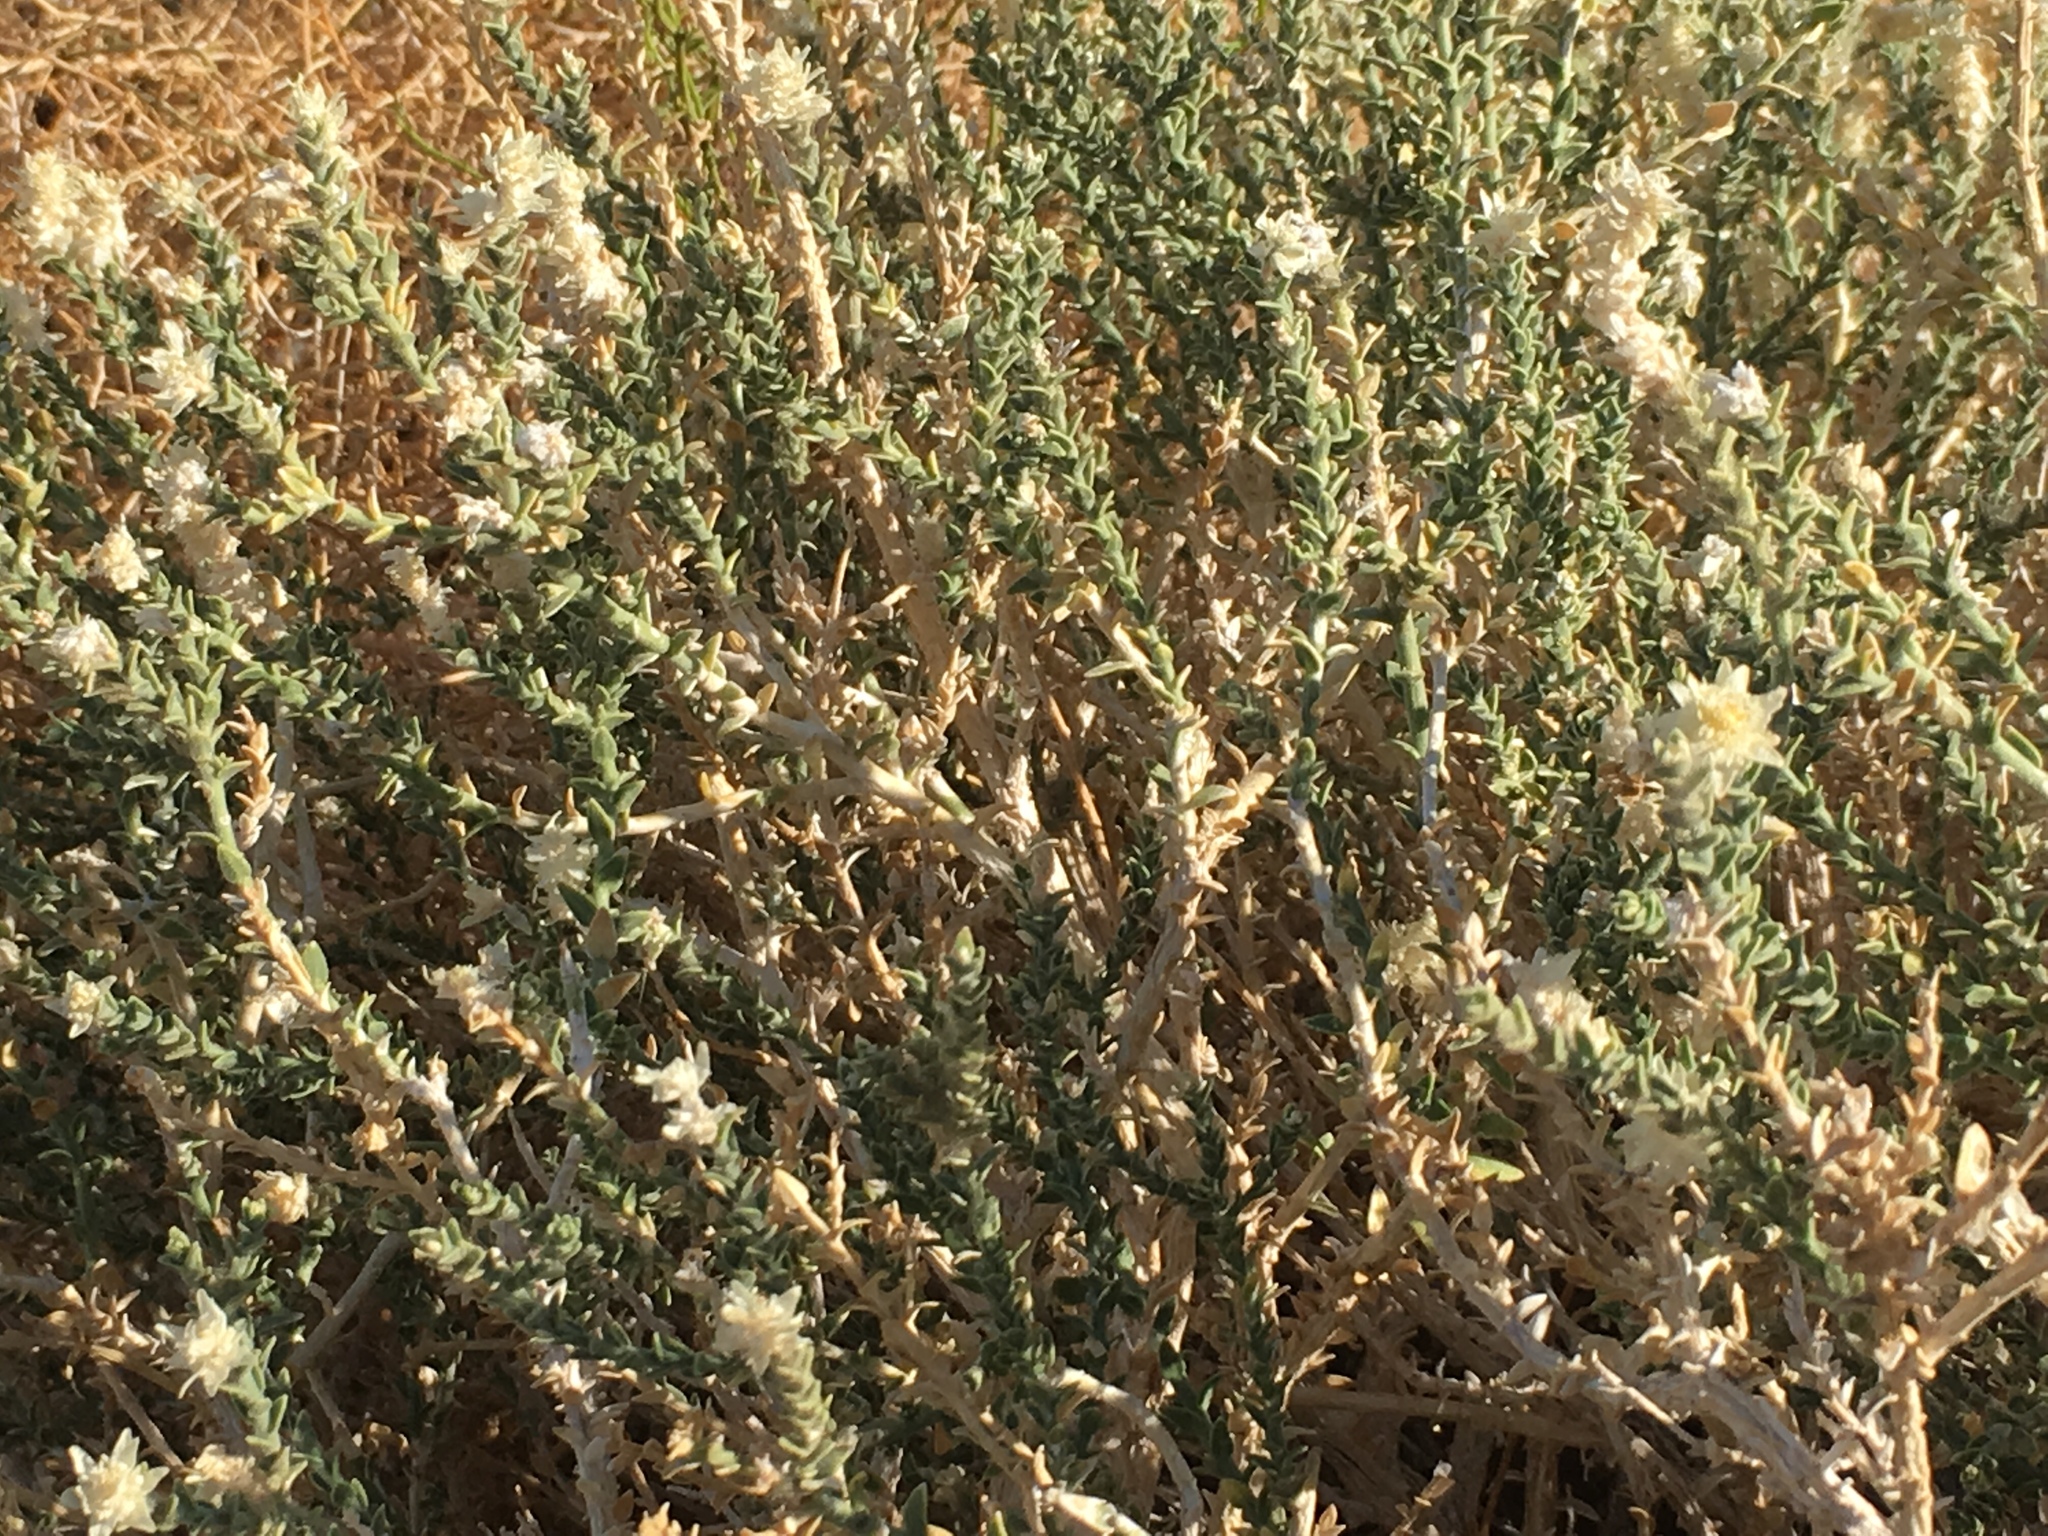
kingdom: Plantae
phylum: Tracheophyta
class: Magnoliopsida
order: Cornales
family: Loasaceae
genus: Petalonyx
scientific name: Petalonyx thurberi
